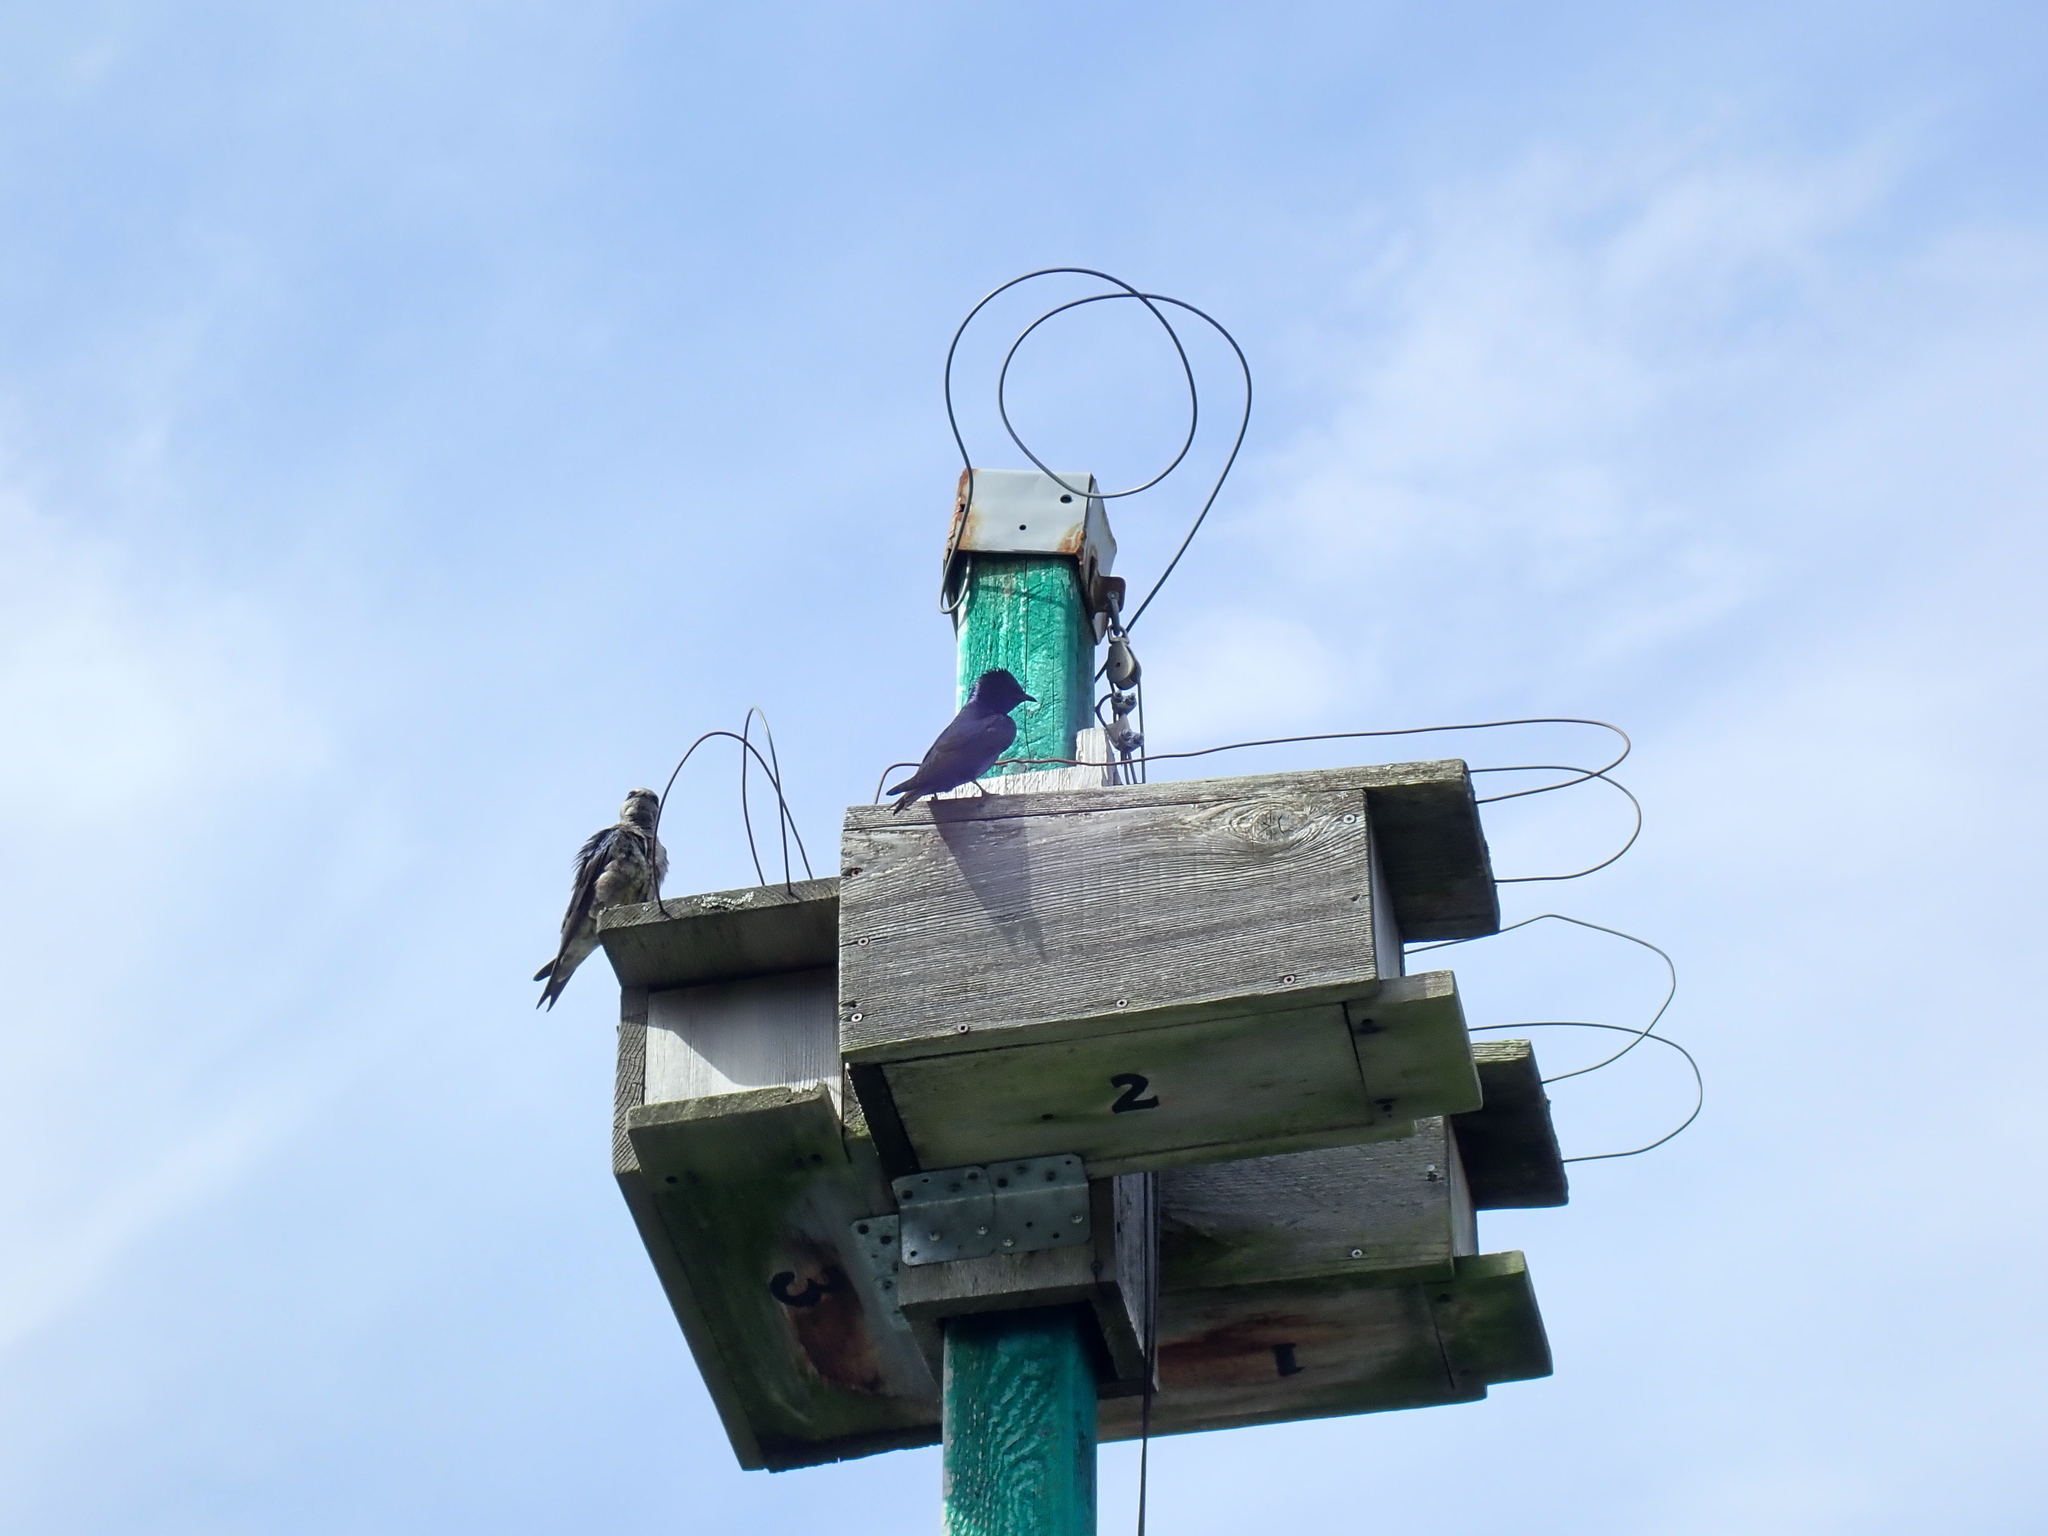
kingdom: Animalia
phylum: Chordata
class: Aves
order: Passeriformes
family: Hirundinidae
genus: Progne
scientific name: Progne subis
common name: Purple martin
